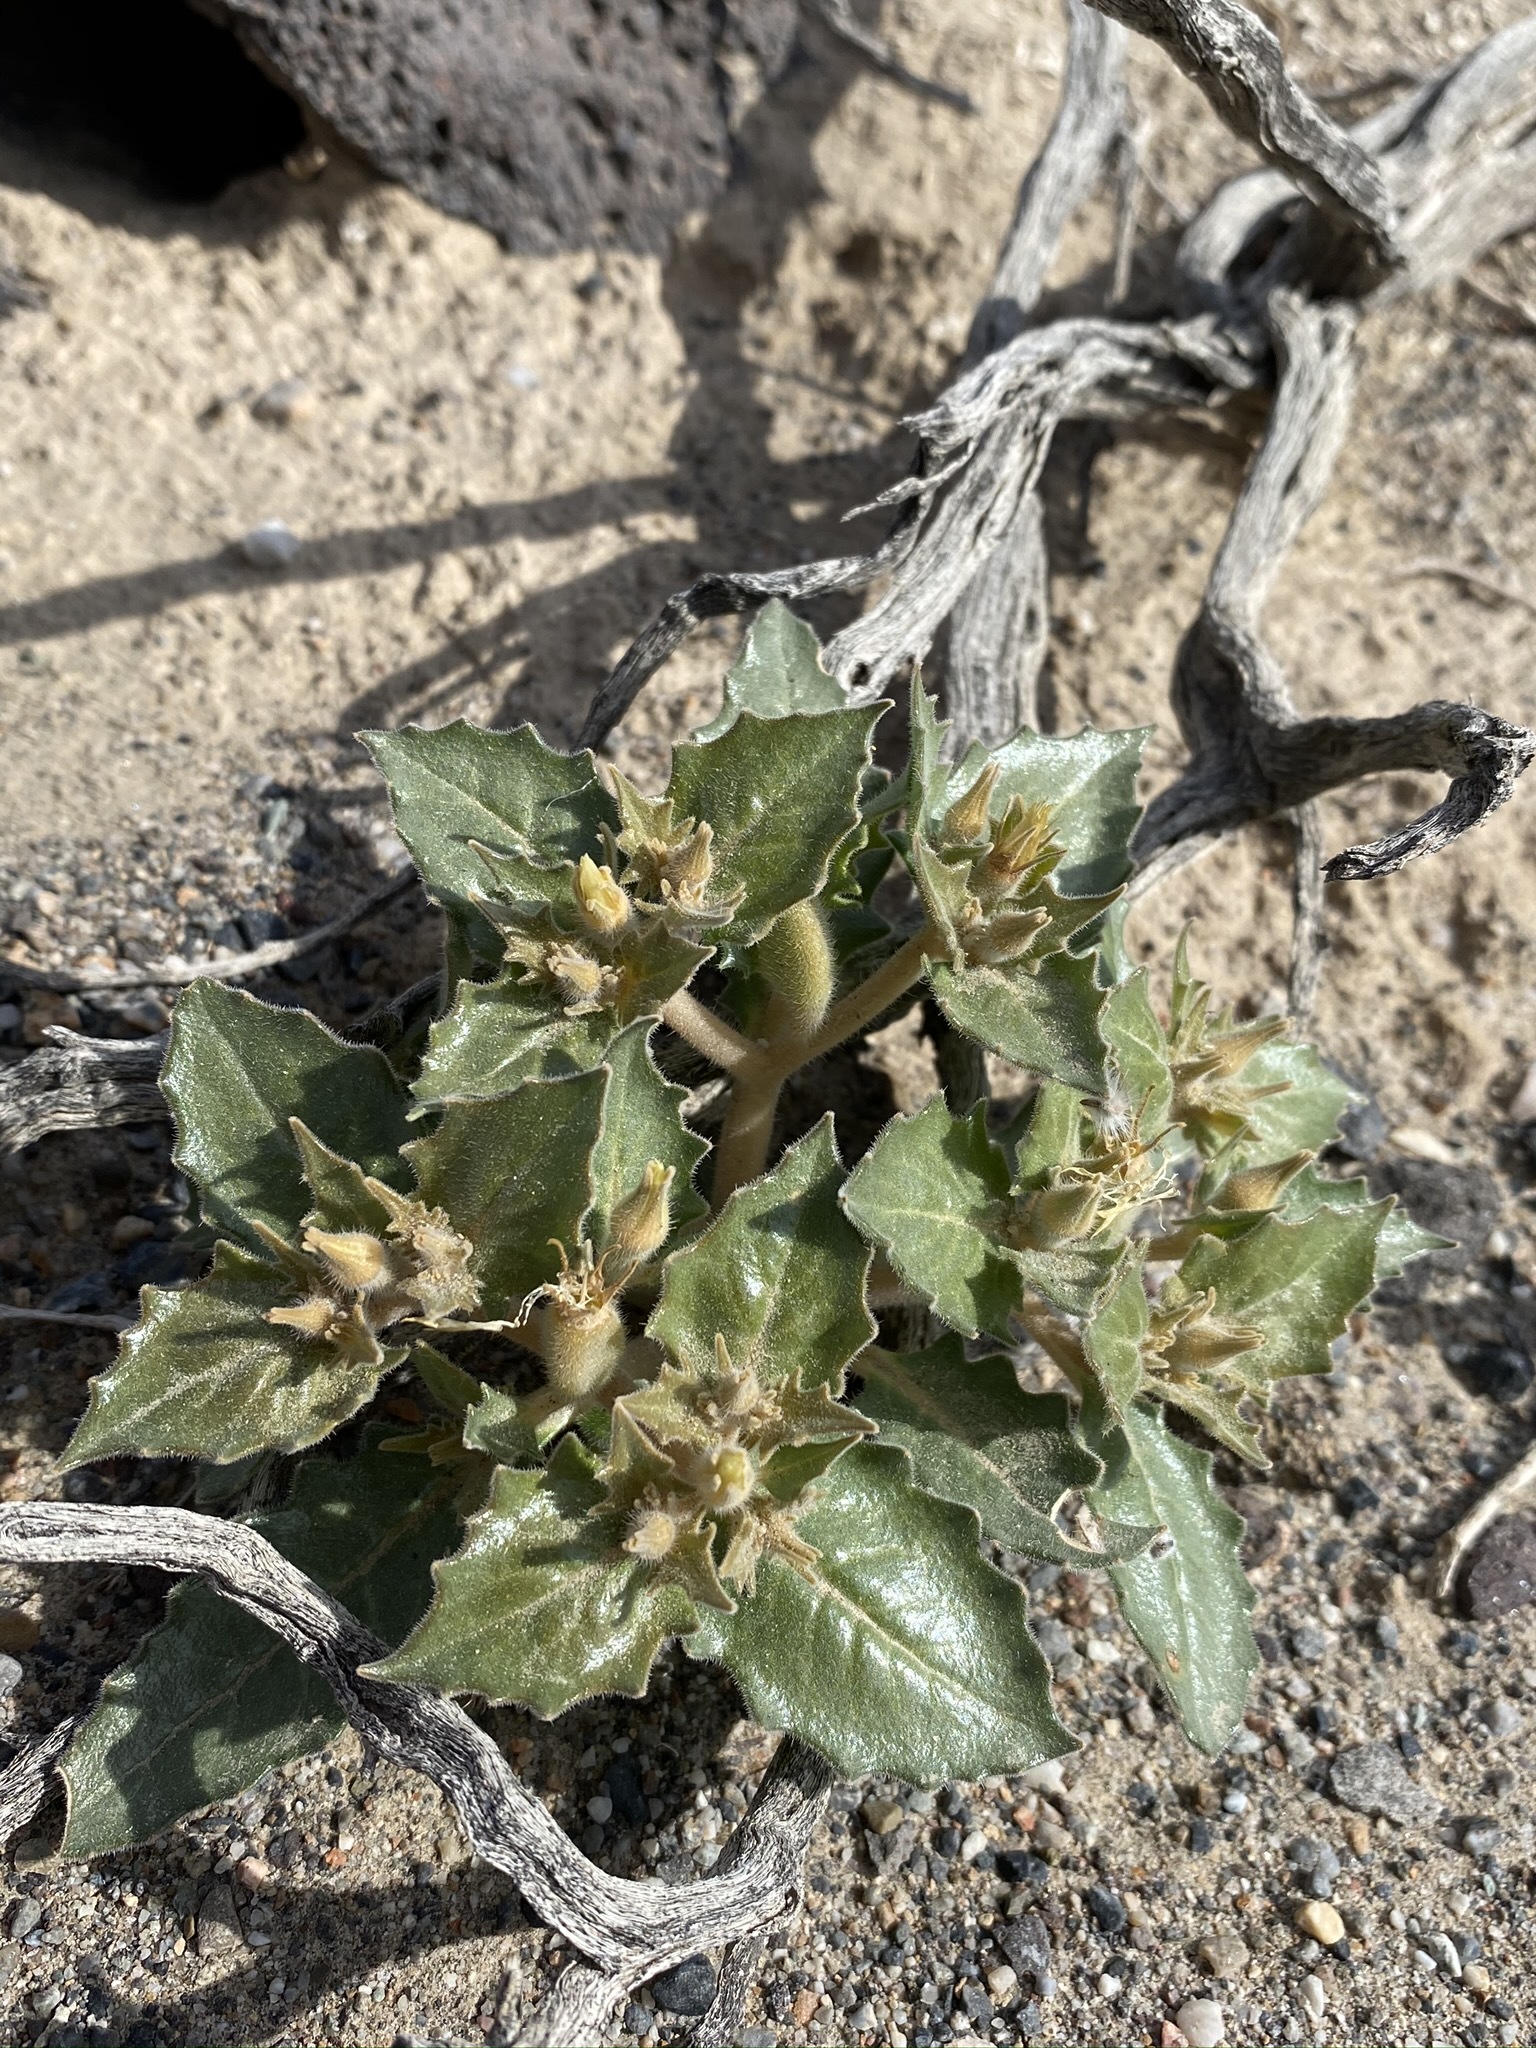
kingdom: Plantae
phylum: Tracheophyta
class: Magnoliopsida
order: Cornales
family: Loasaceae
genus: Mentzelia
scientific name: Mentzelia reflexa
